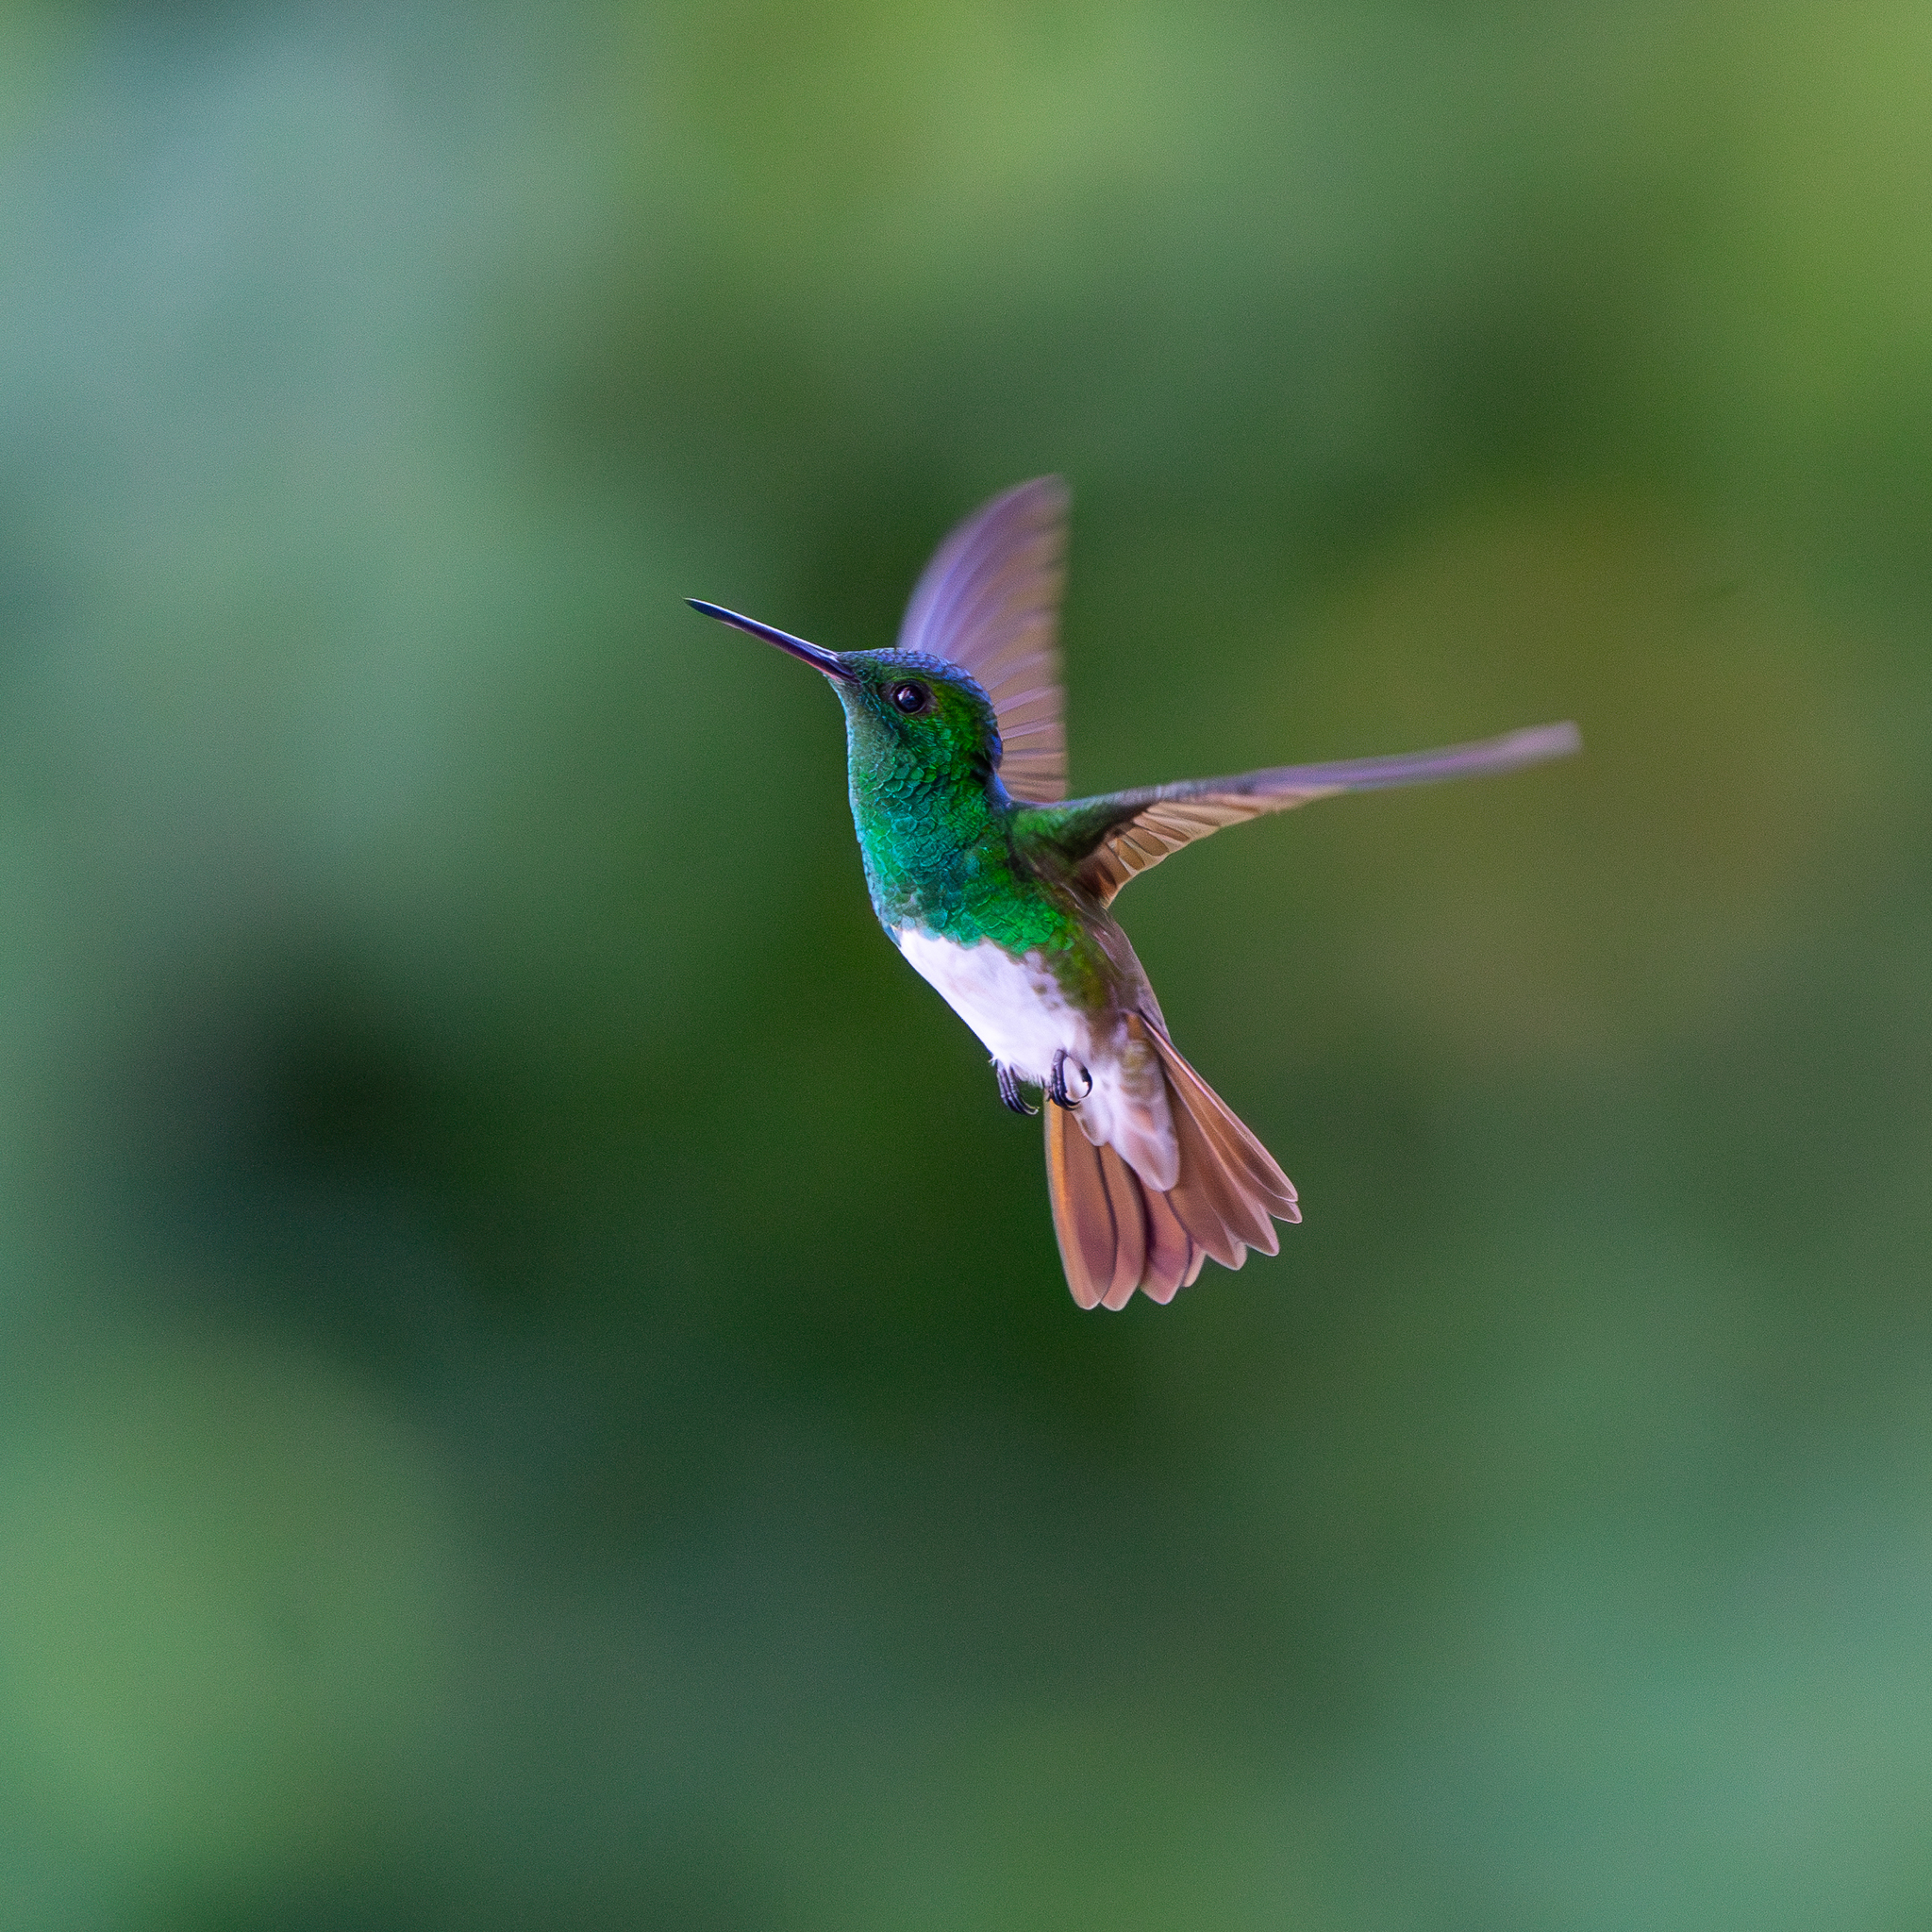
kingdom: Animalia
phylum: Chordata
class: Aves
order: Apodiformes
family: Trochilidae
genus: Saucerottia
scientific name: Saucerottia edward
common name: Snowy-bellied hummingbird
